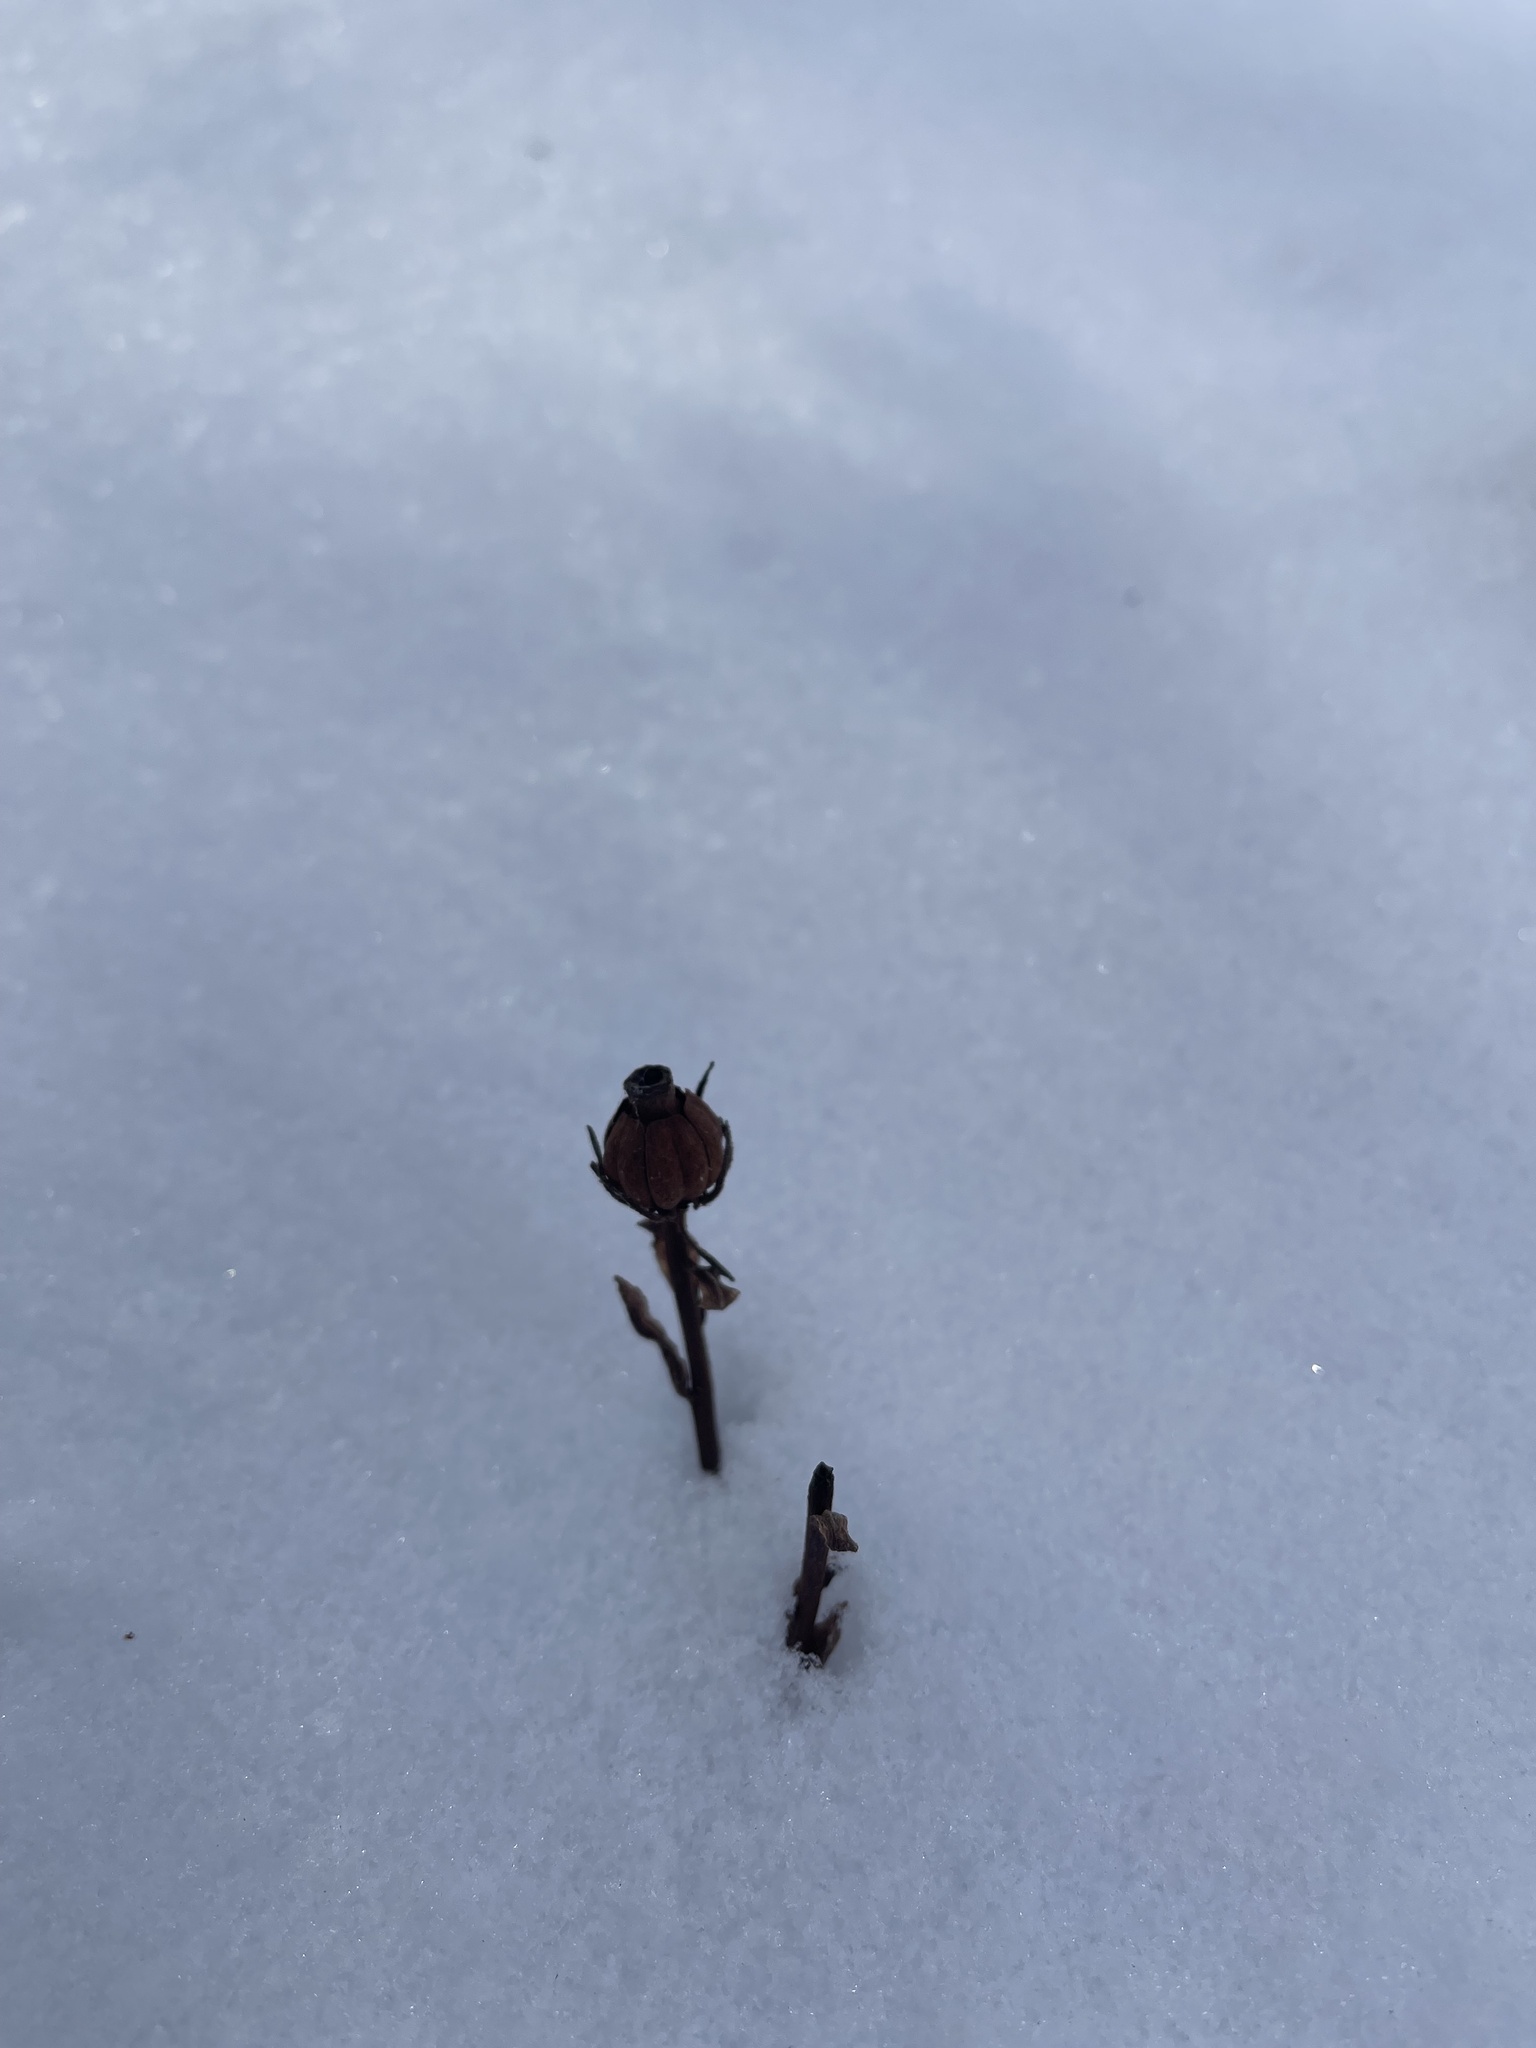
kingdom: Plantae
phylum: Tracheophyta
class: Magnoliopsida
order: Ericales
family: Ericaceae
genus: Monotropa
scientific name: Monotropa uniflora
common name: Convulsion root
